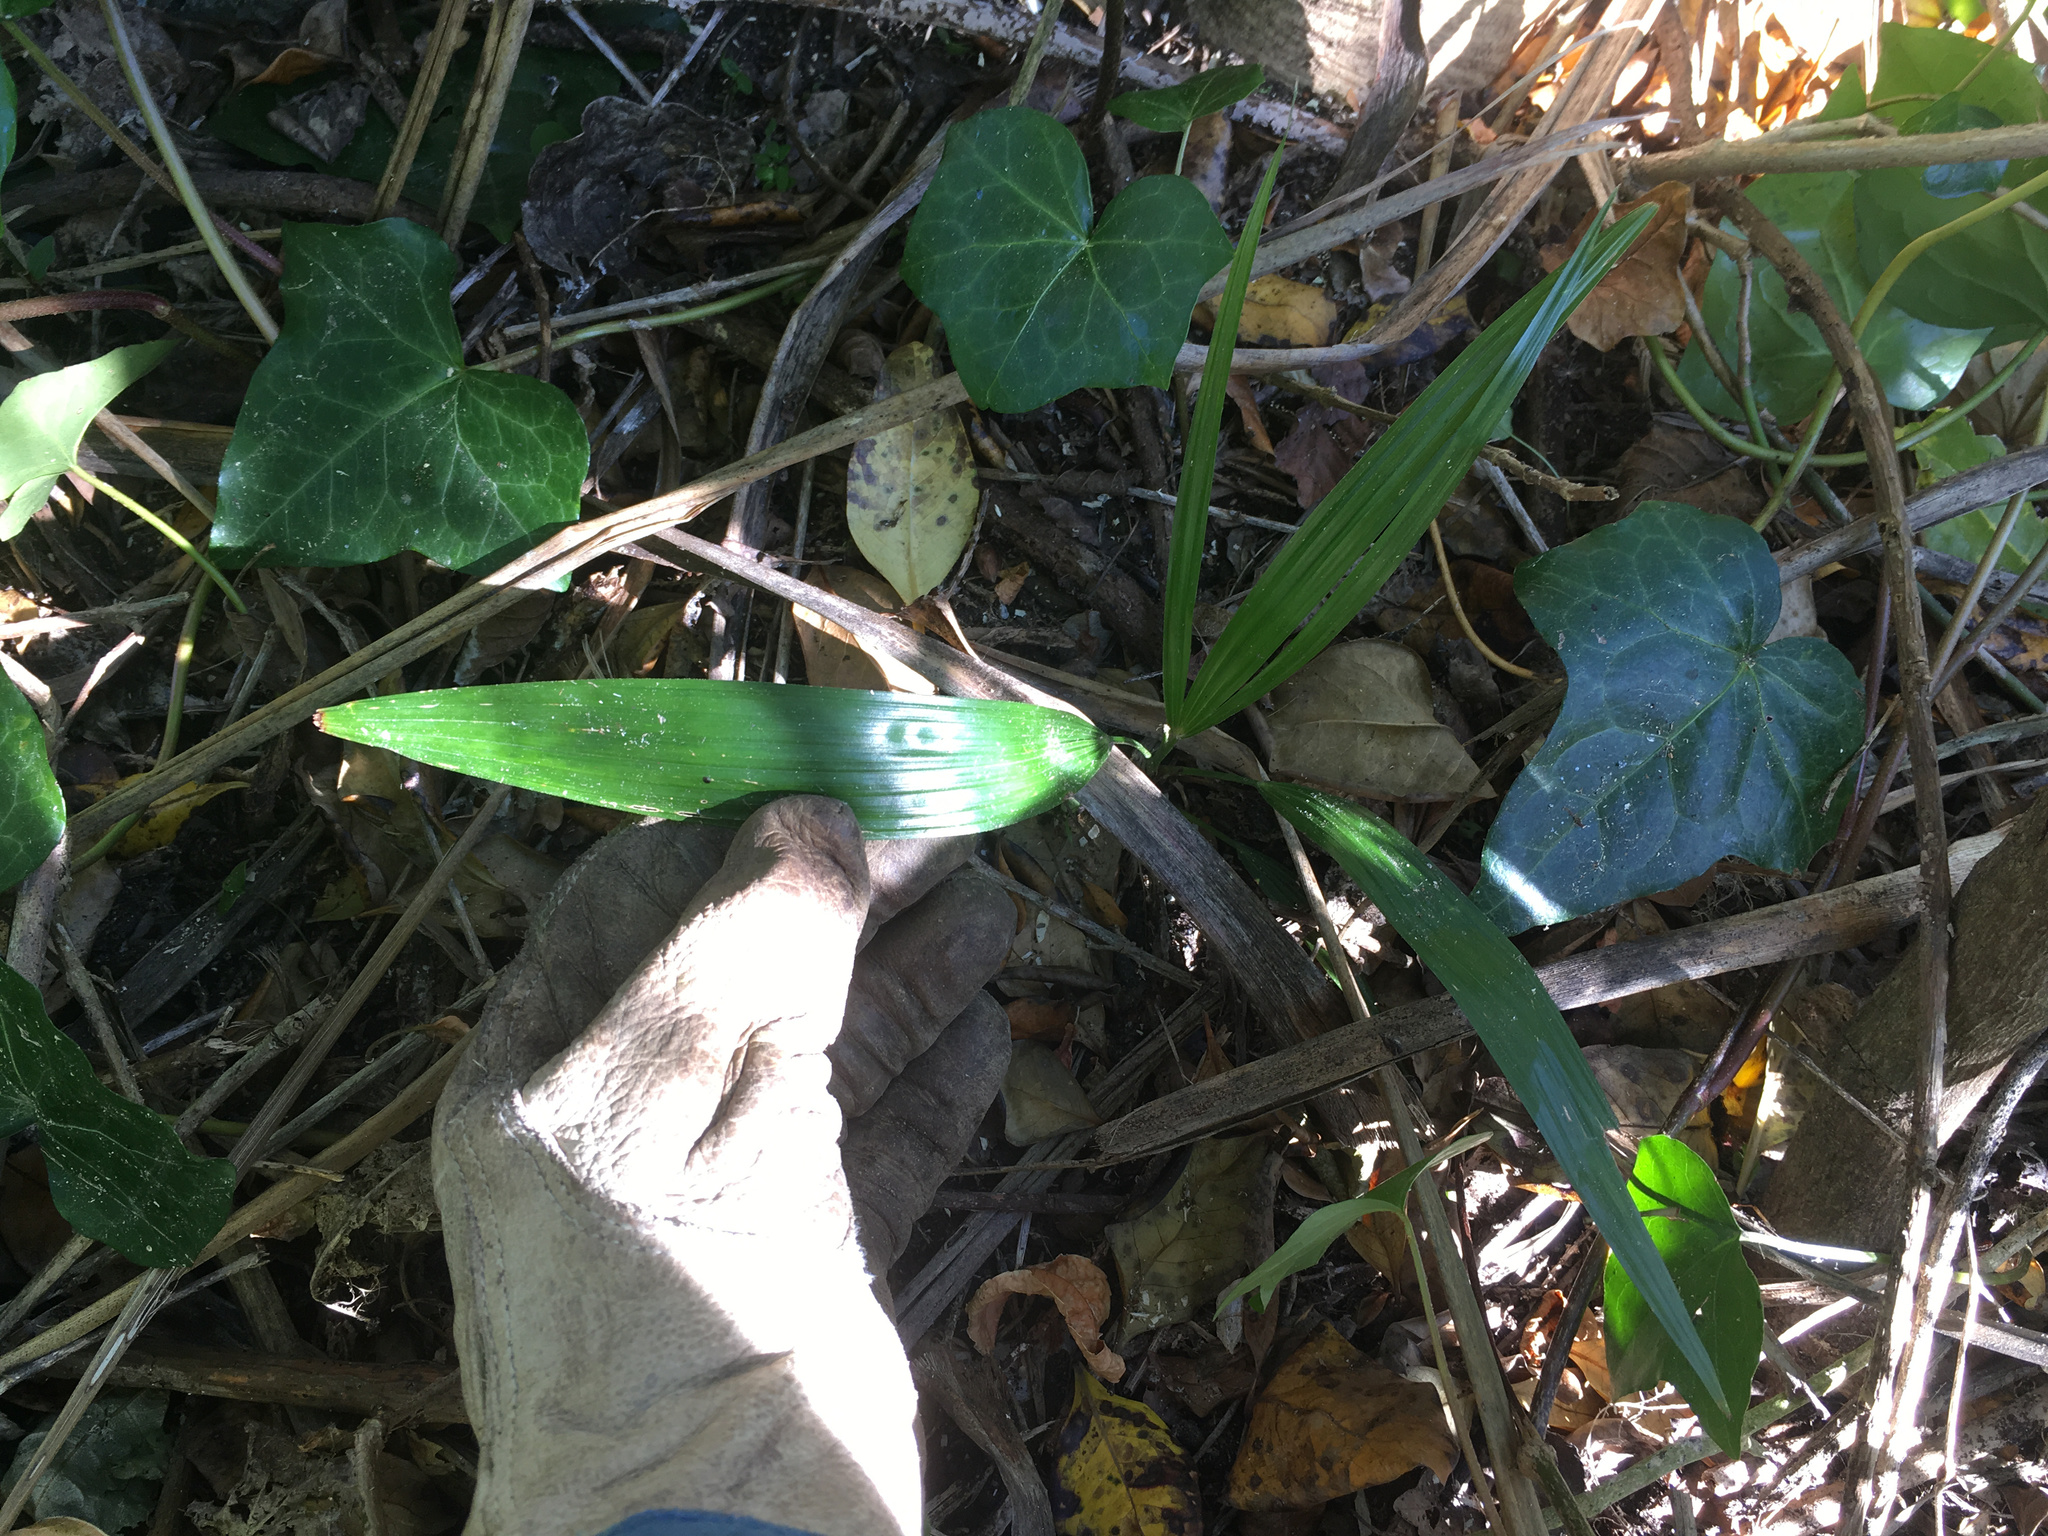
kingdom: Plantae
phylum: Tracheophyta
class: Liliopsida
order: Arecales
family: Arecaceae
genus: Trachycarpus
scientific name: Trachycarpus fortunei
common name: Chusan palm
